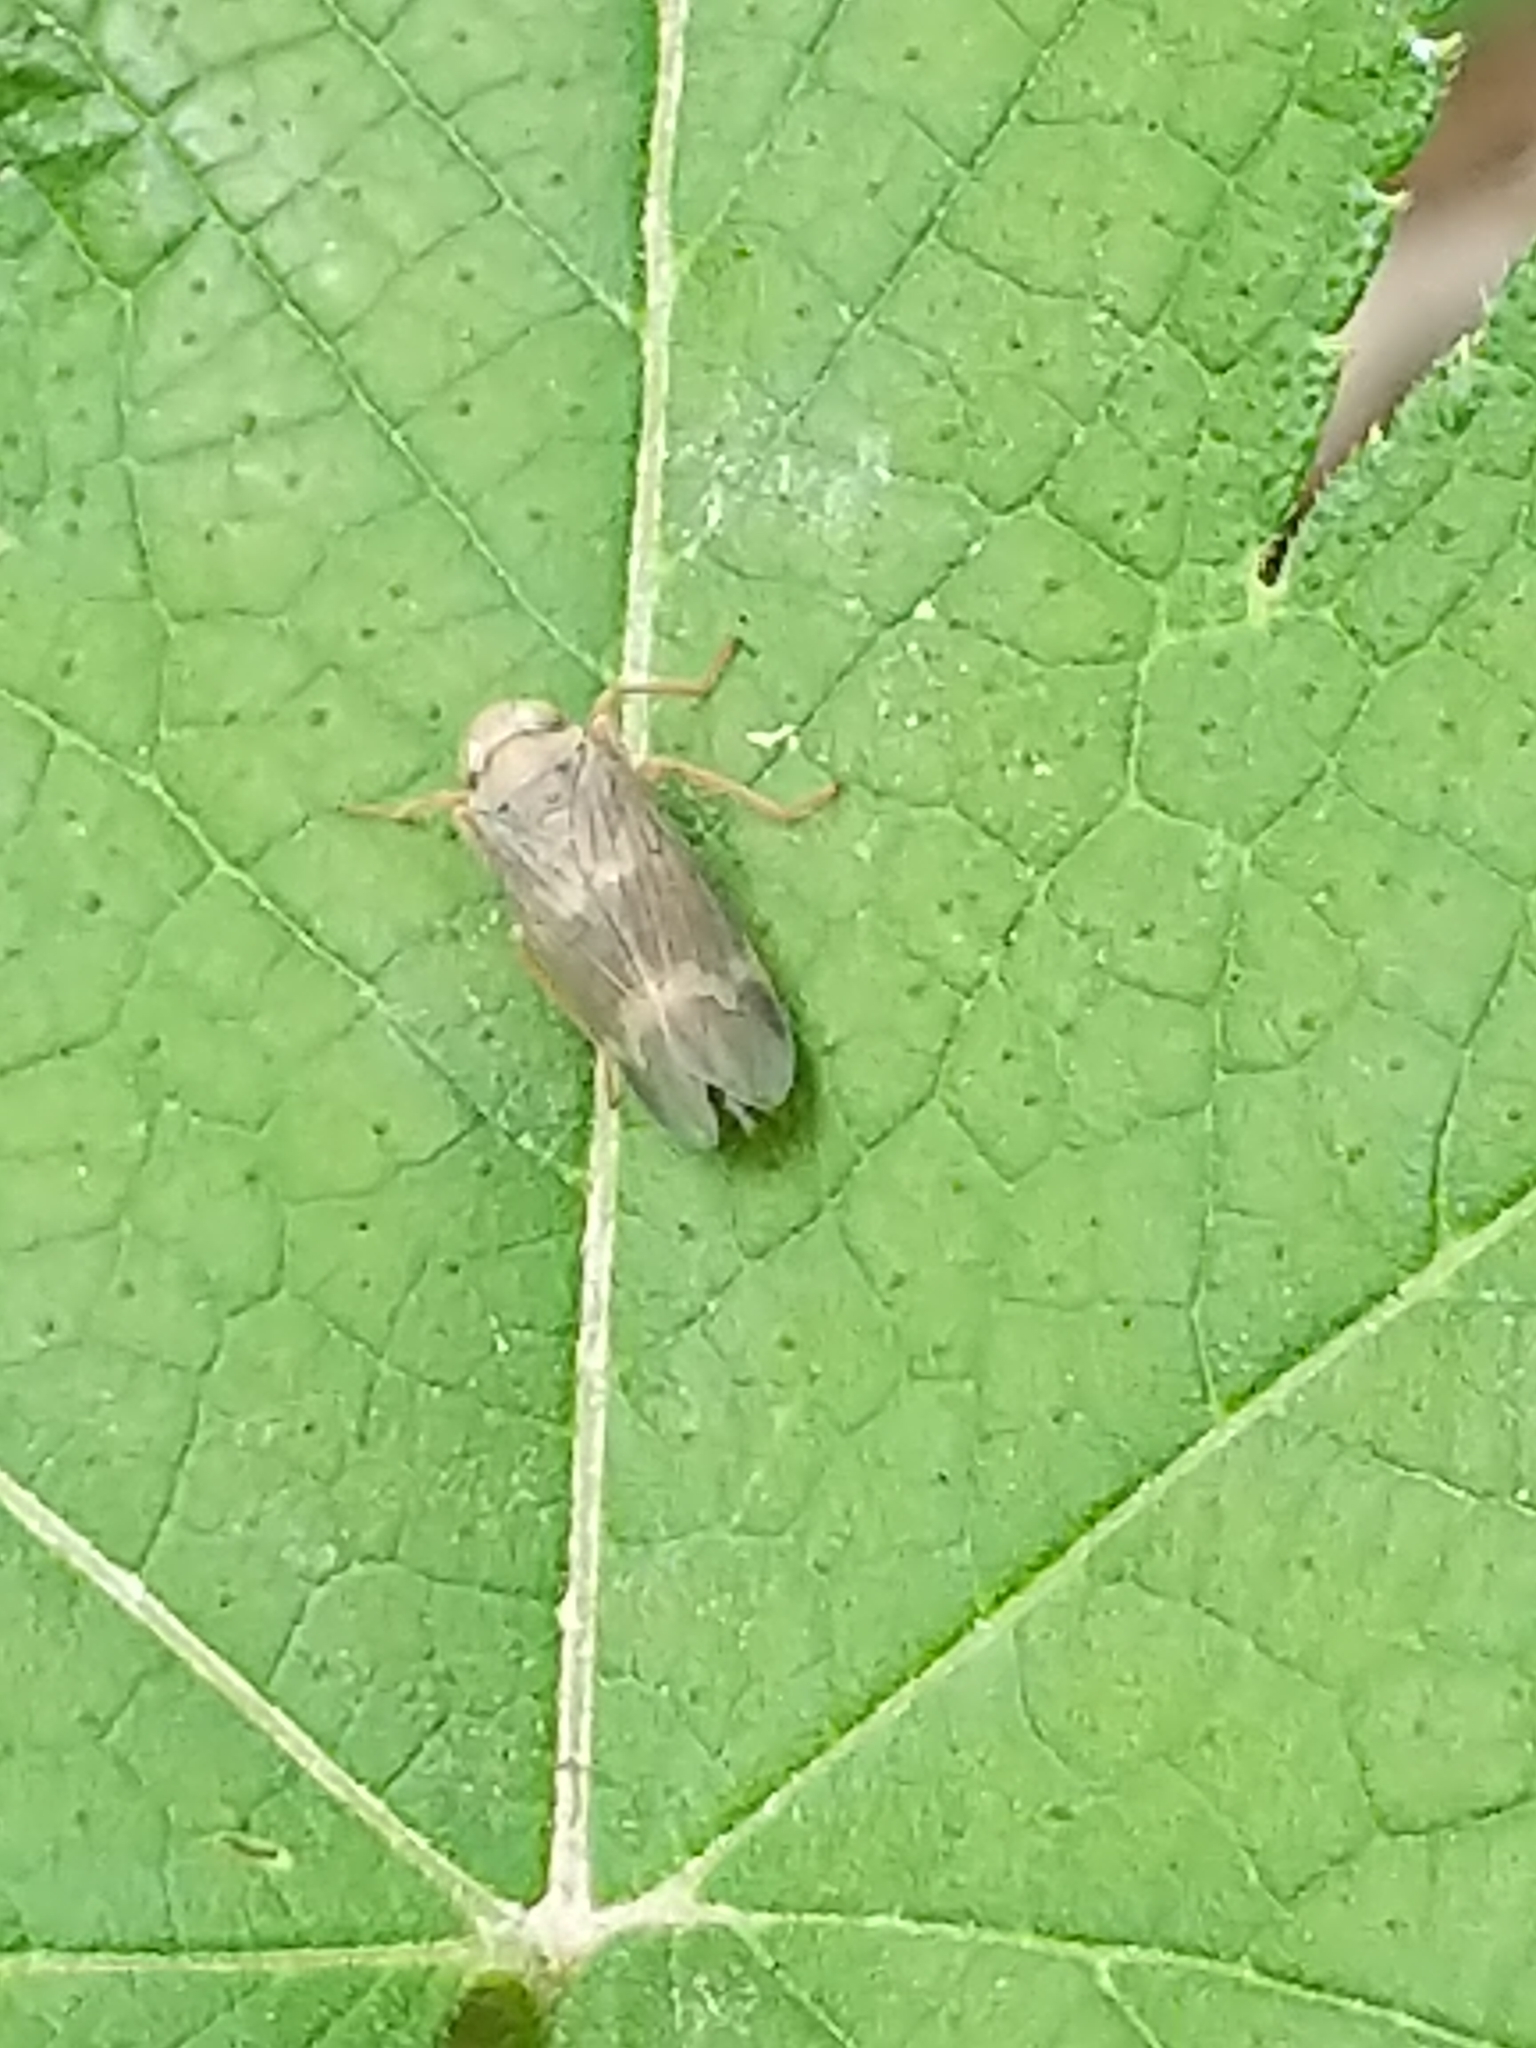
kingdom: Animalia
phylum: Arthropoda
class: Insecta
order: Hemiptera
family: Cicadellidae
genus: Jikradia
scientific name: Jikradia olitoria
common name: Coppery leafhopper
